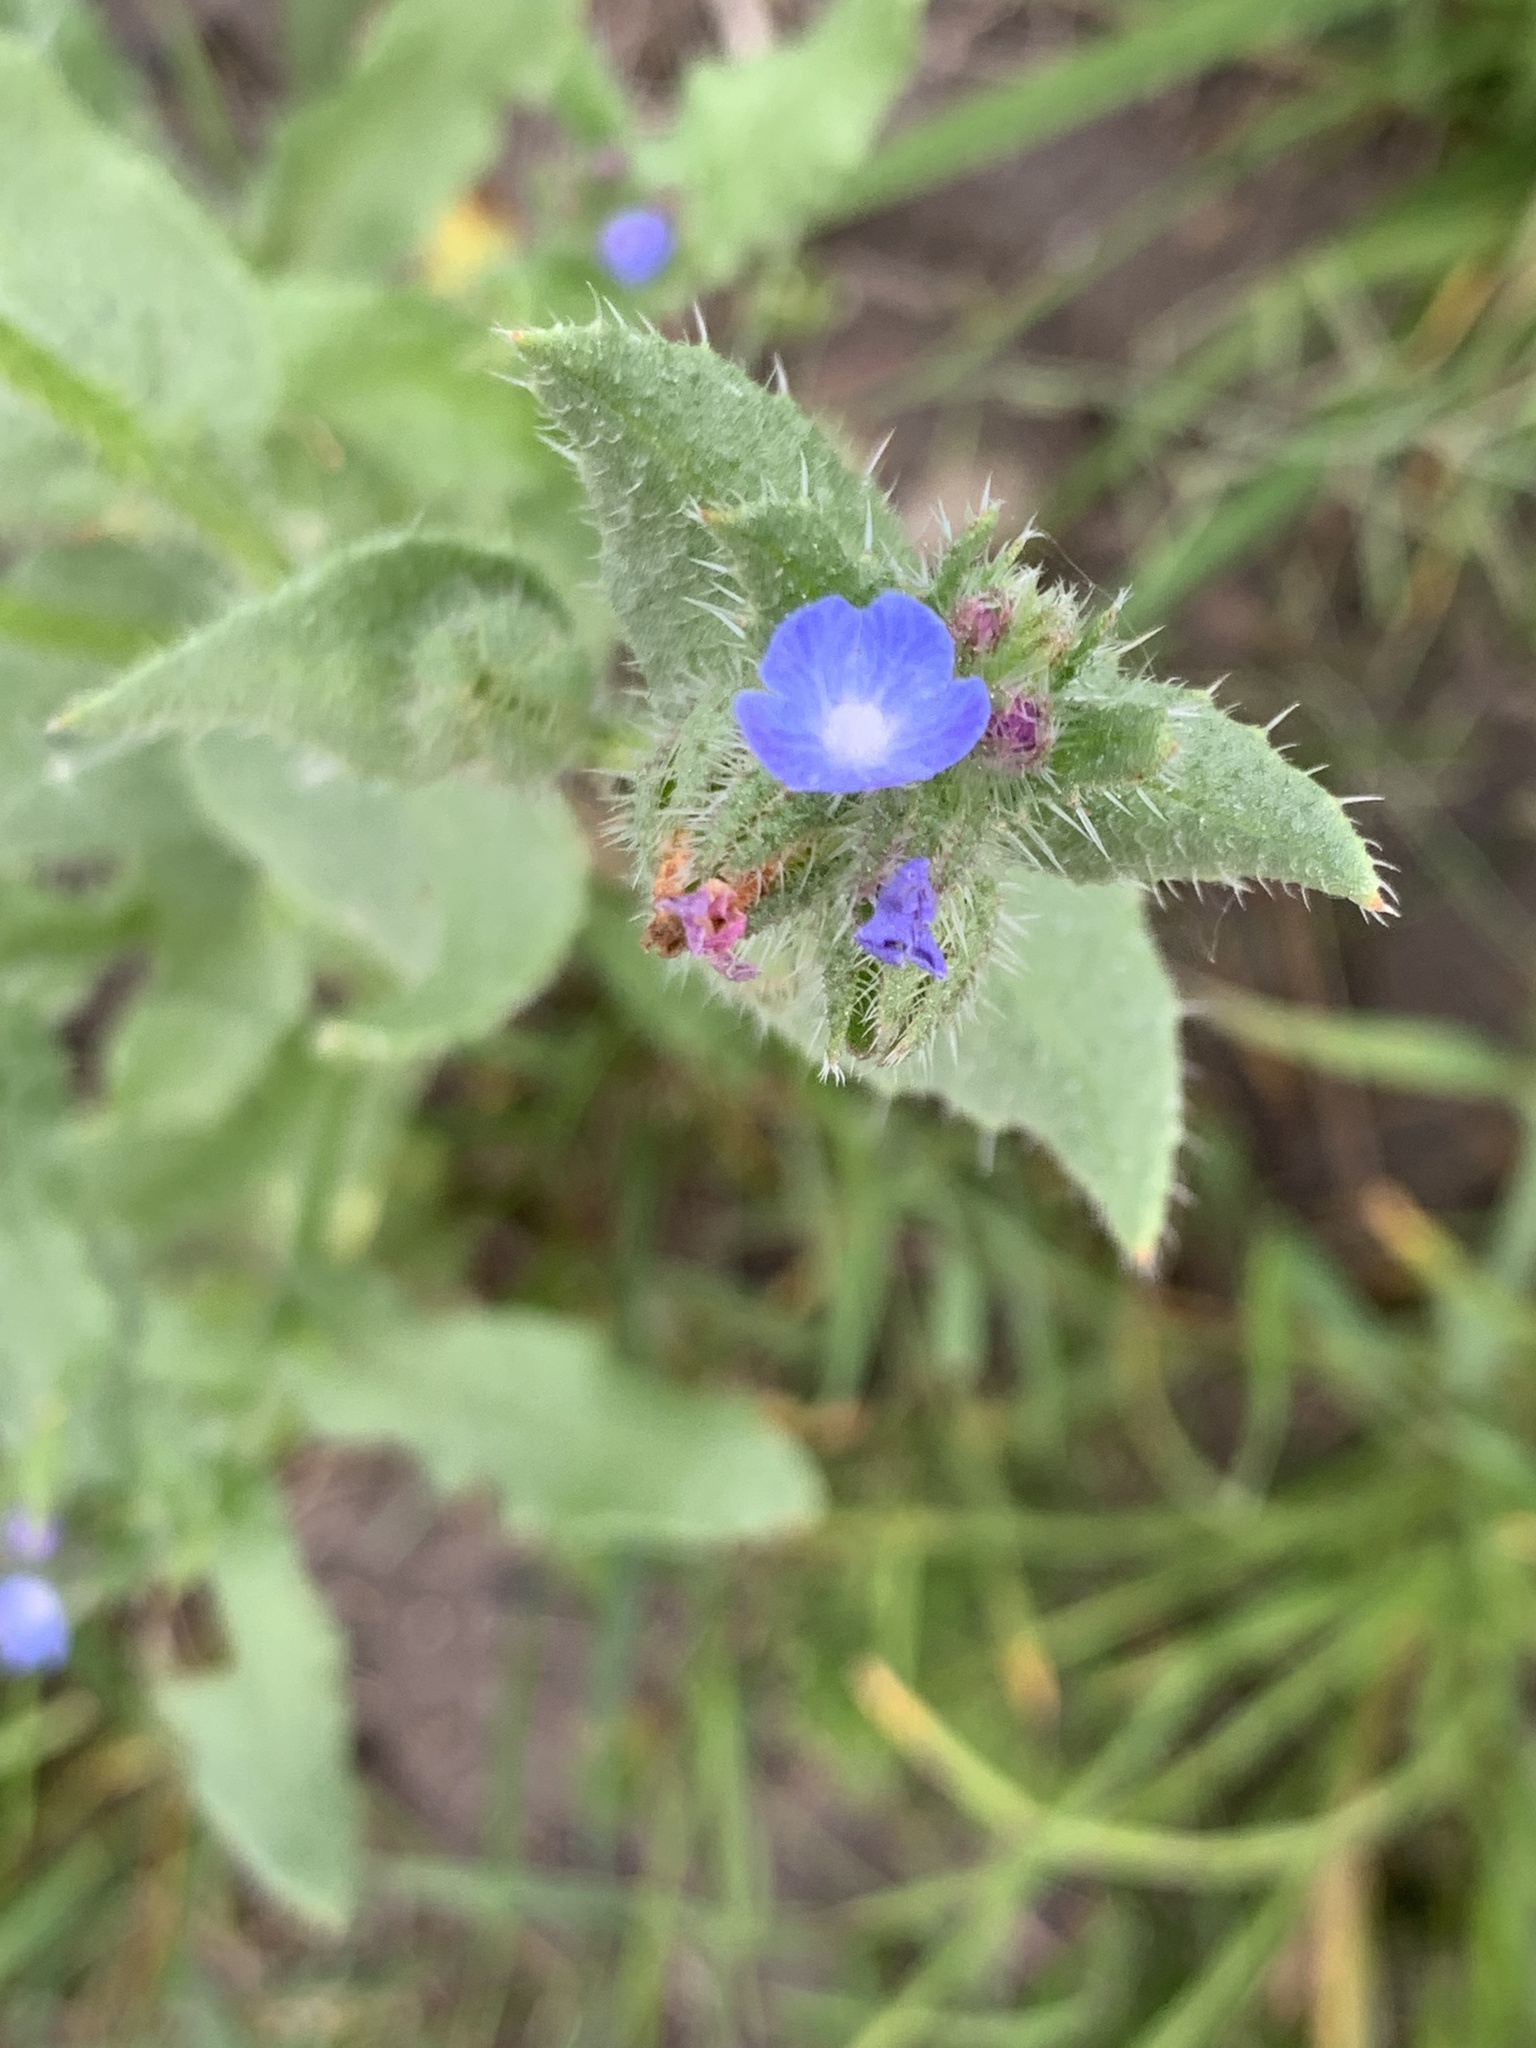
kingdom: Plantae
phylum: Tracheophyta
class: Magnoliopsida
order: Boraginales
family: Boraginaceae
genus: Lycopsis
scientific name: Lycopsis arvensis
